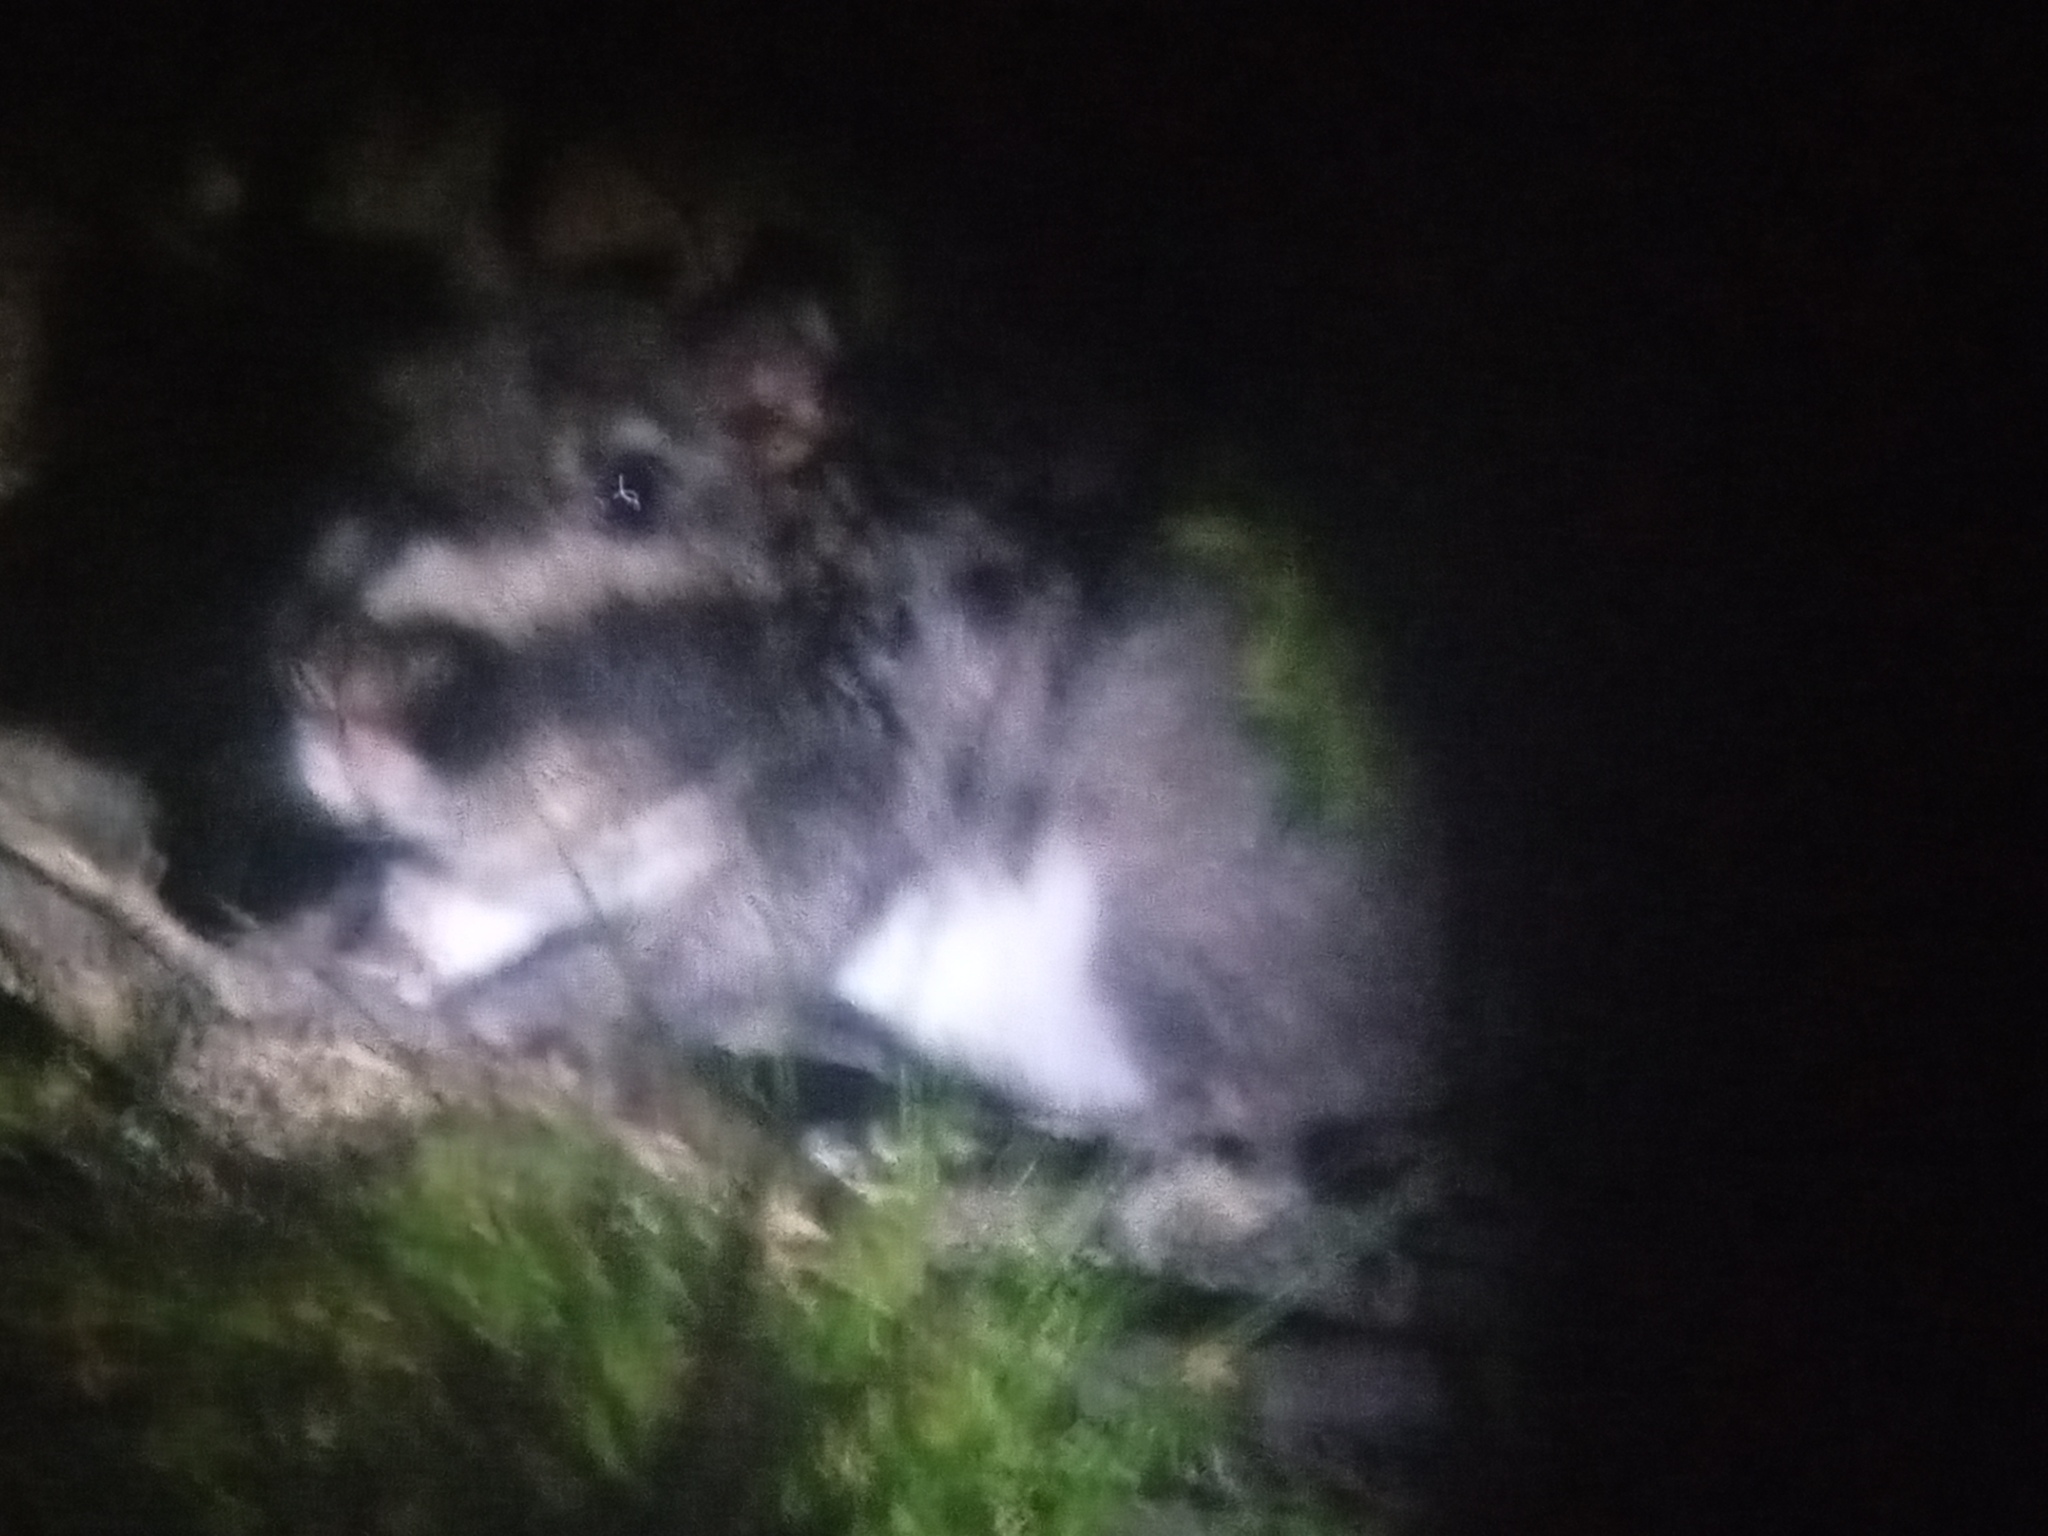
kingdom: Animalia
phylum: Chordata
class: Mammalia
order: Rodentia
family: Chinchillidae
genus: Lagostomus
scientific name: Lagostomus maximus
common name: Plains viscacha
